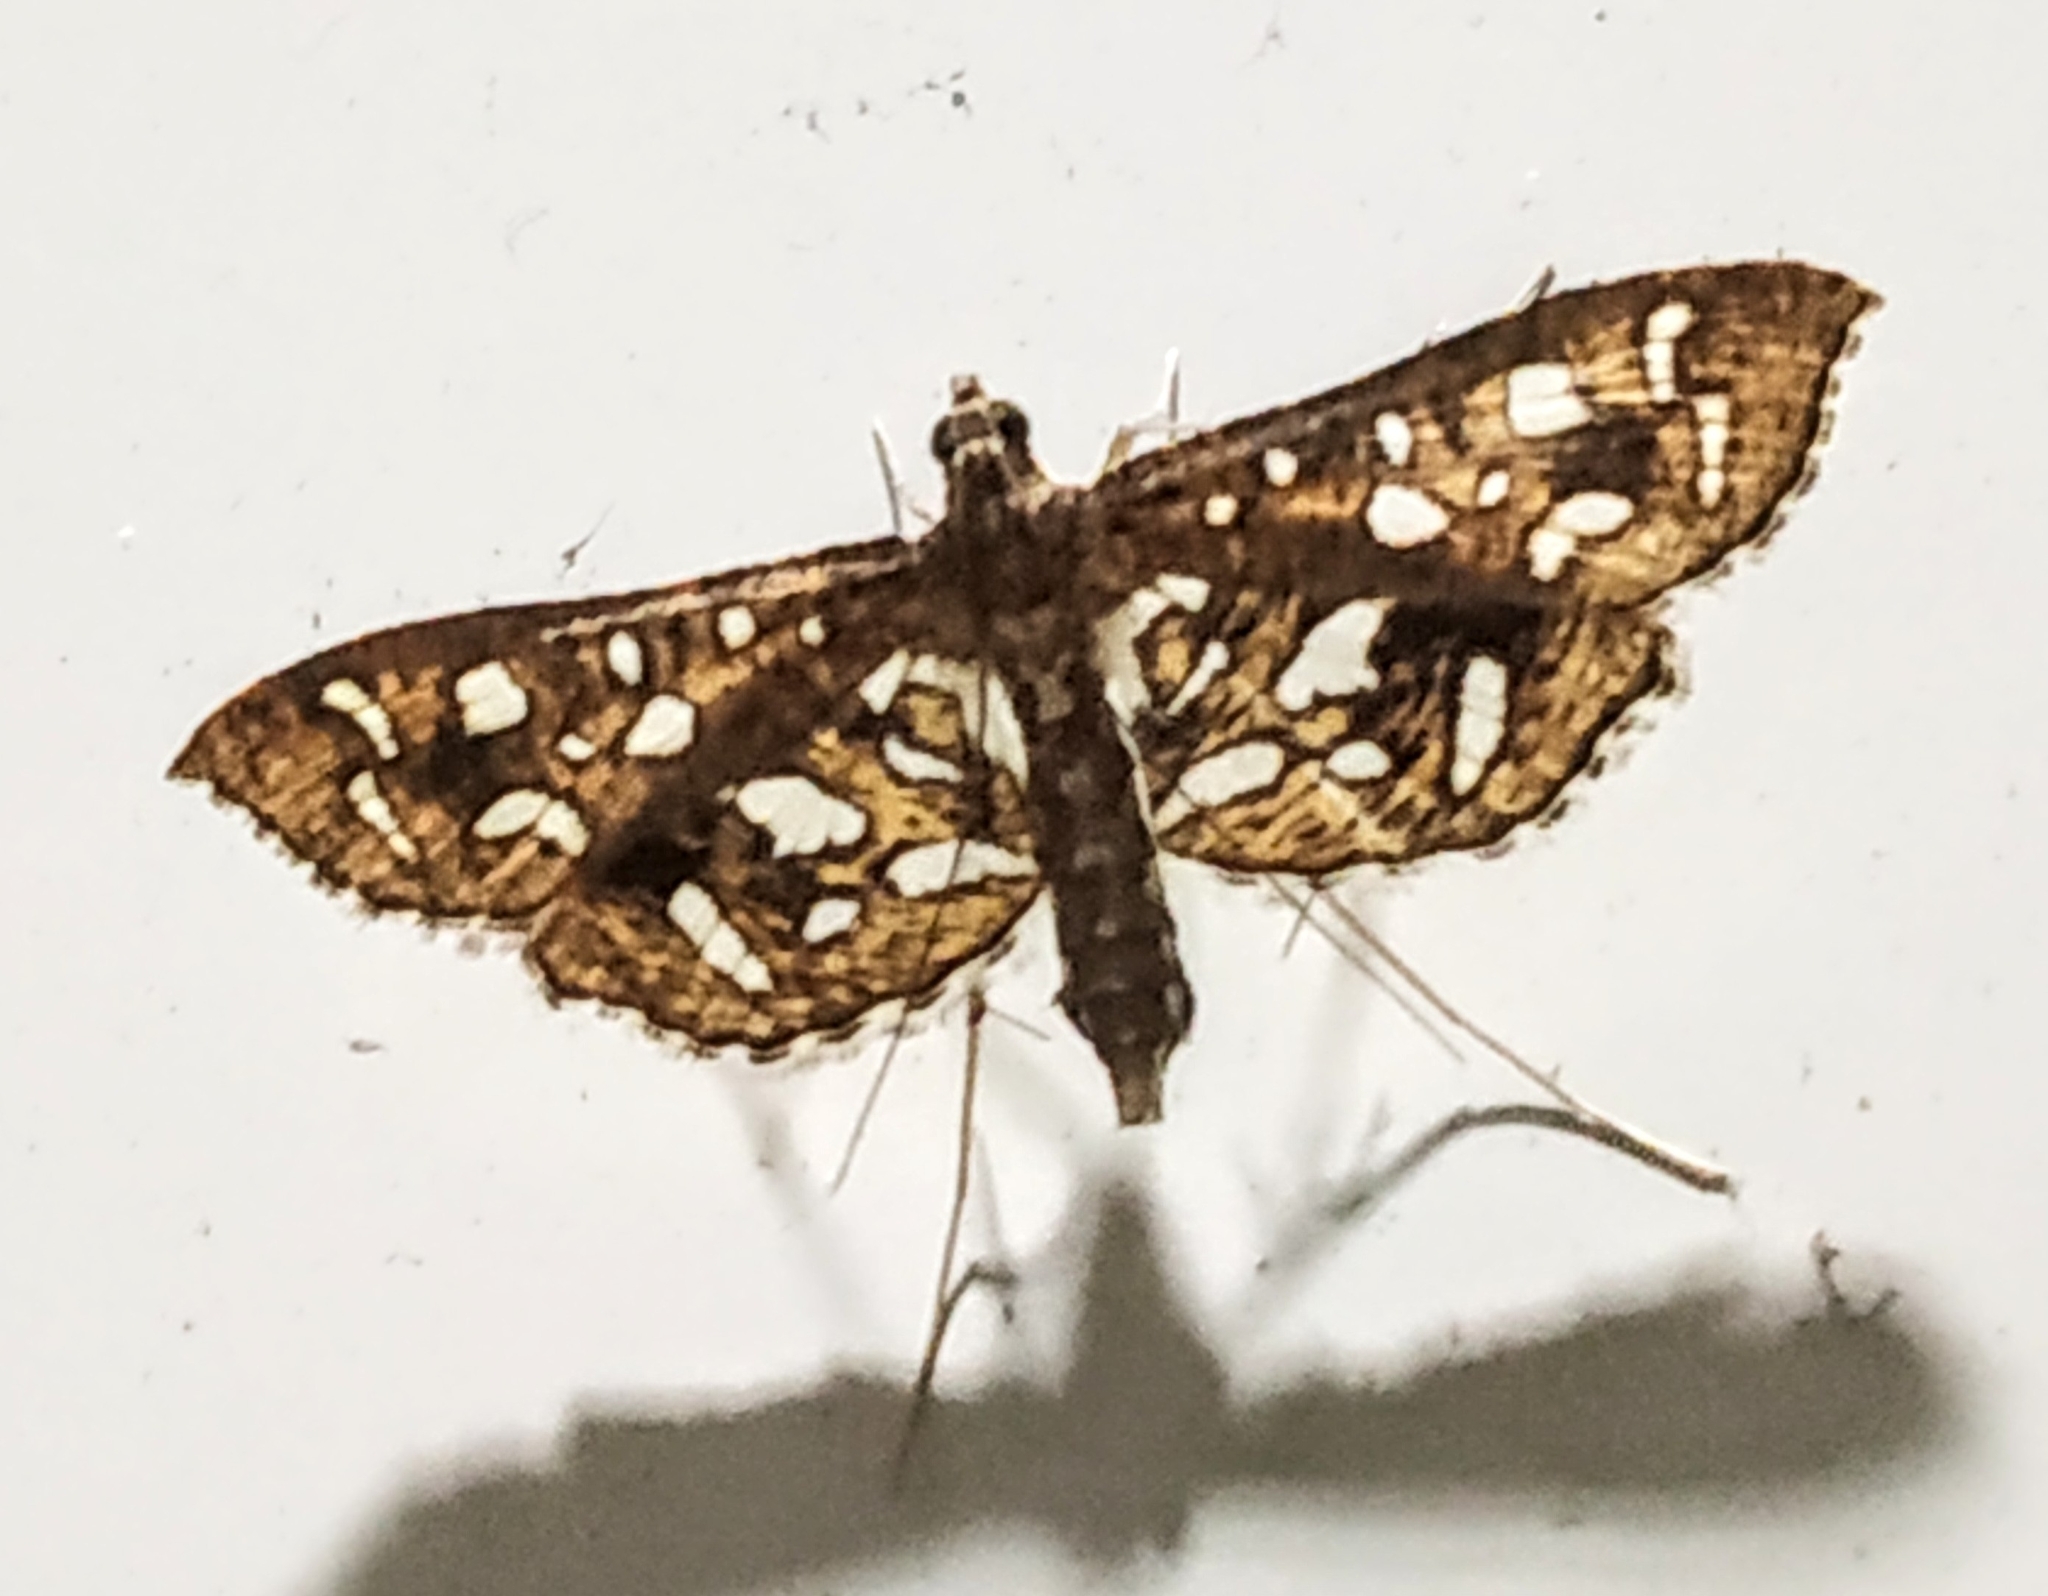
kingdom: Animalia
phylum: Arthropoda
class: Insecta
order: Lepidoptera
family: Crambidae
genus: Nausinoe
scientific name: Nausinoe geometralis
